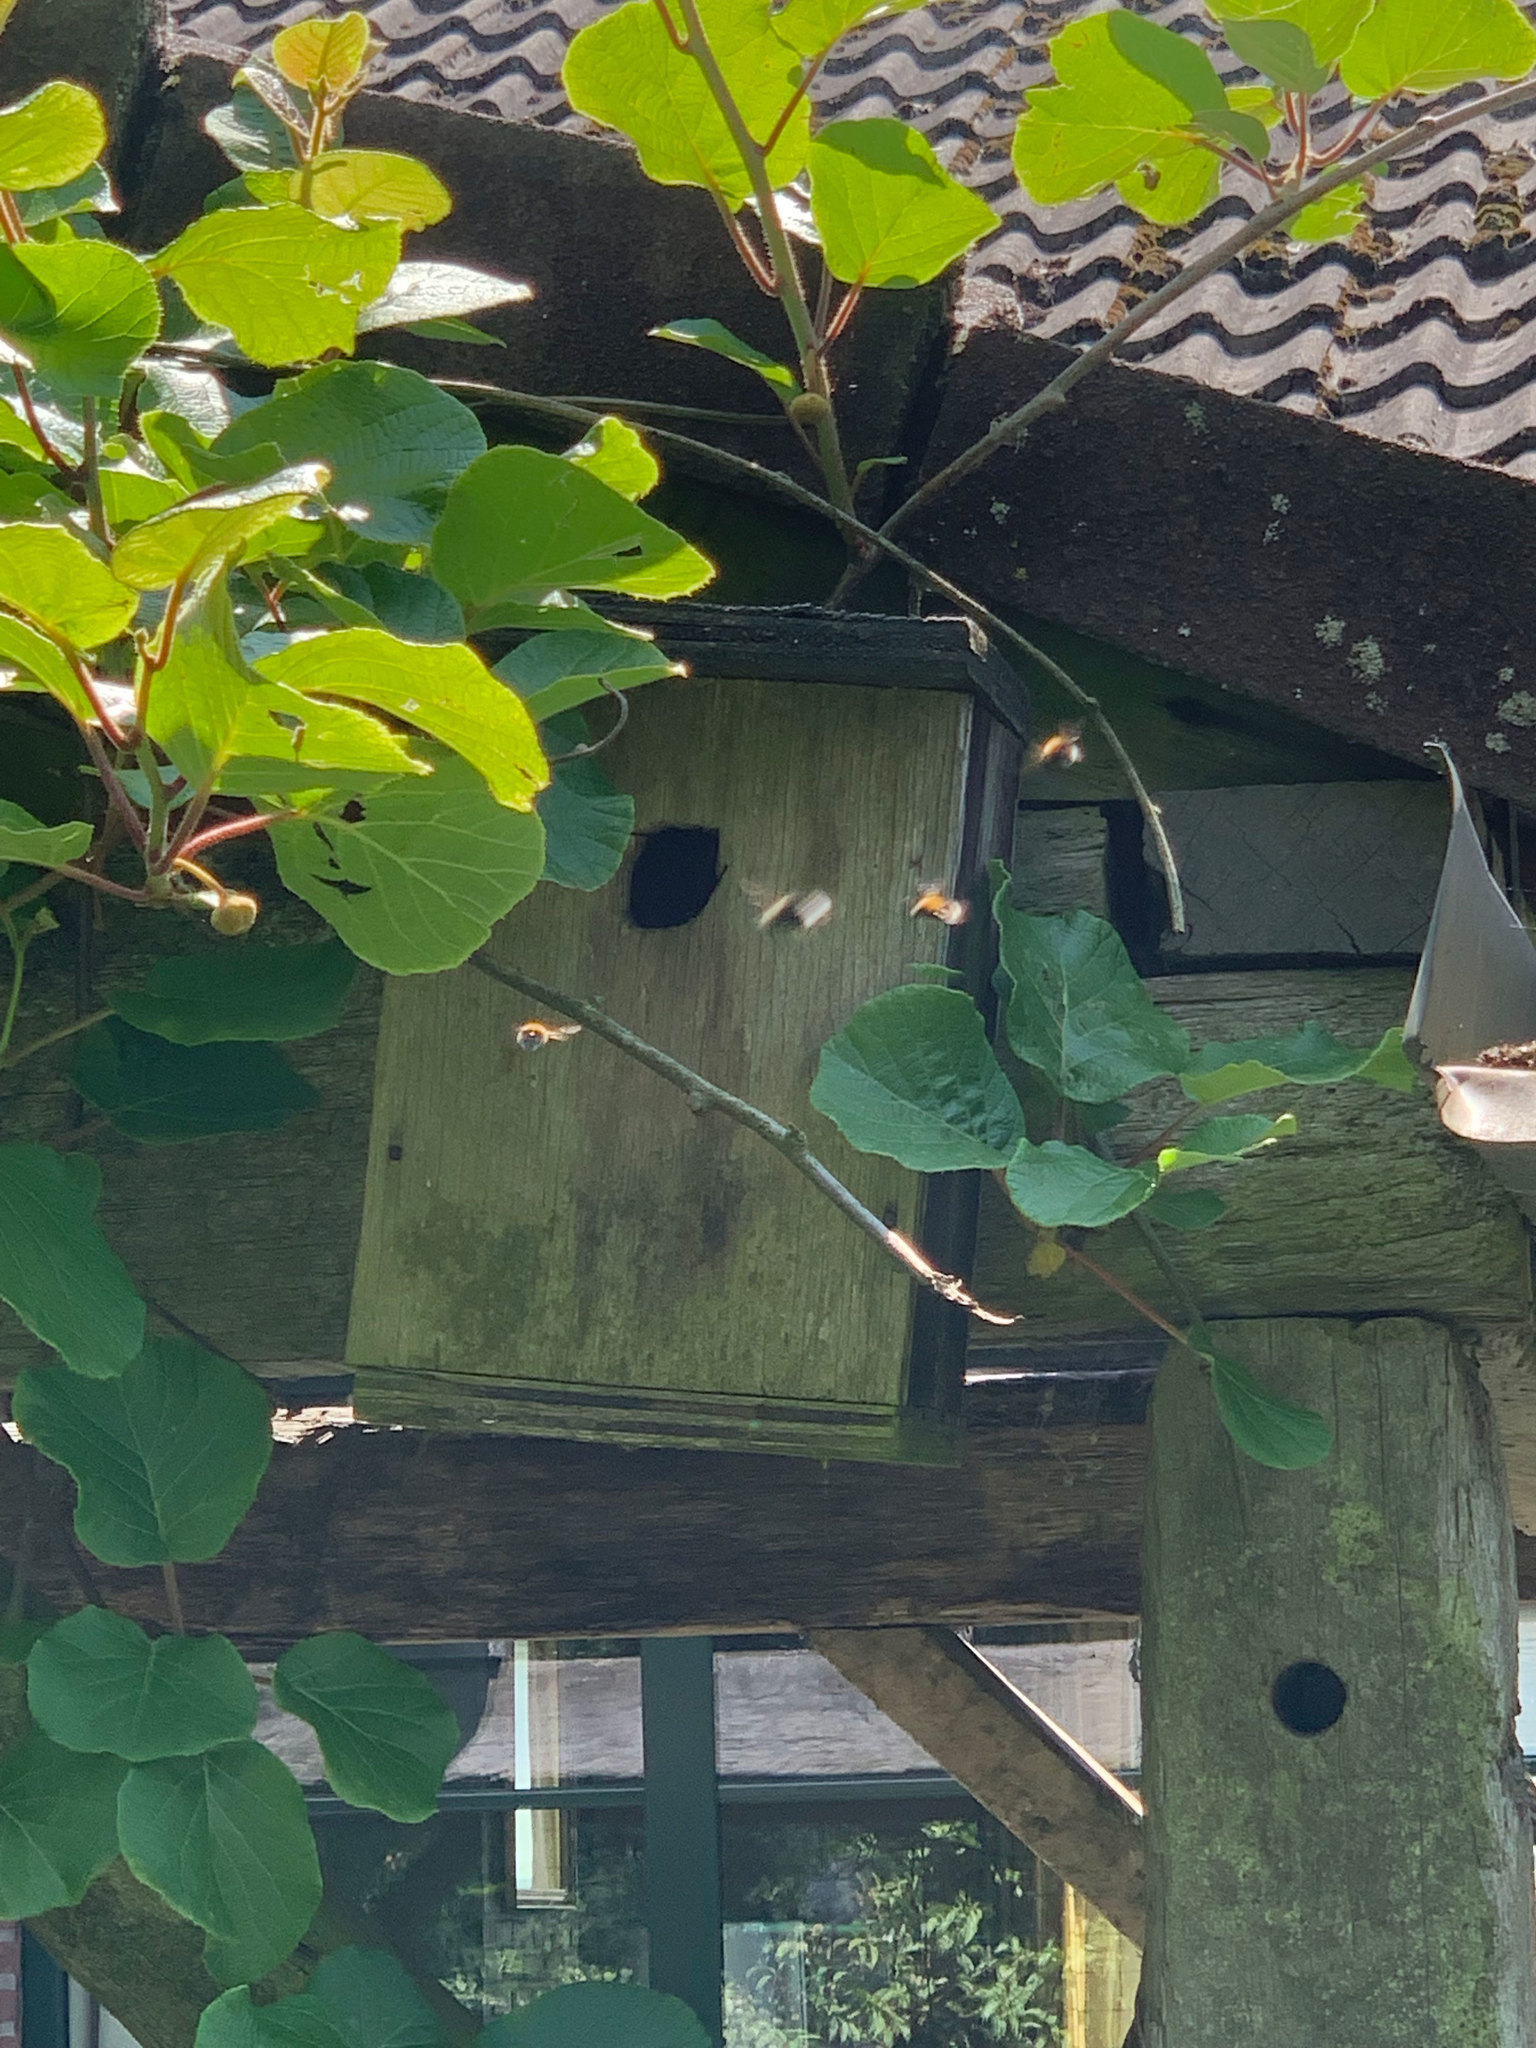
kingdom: Animalia
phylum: Arthropoda
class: Insecta
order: Hymenoptera
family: Apidae
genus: Bombus
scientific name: Bombus hypnorum
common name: New garden bumblebee
